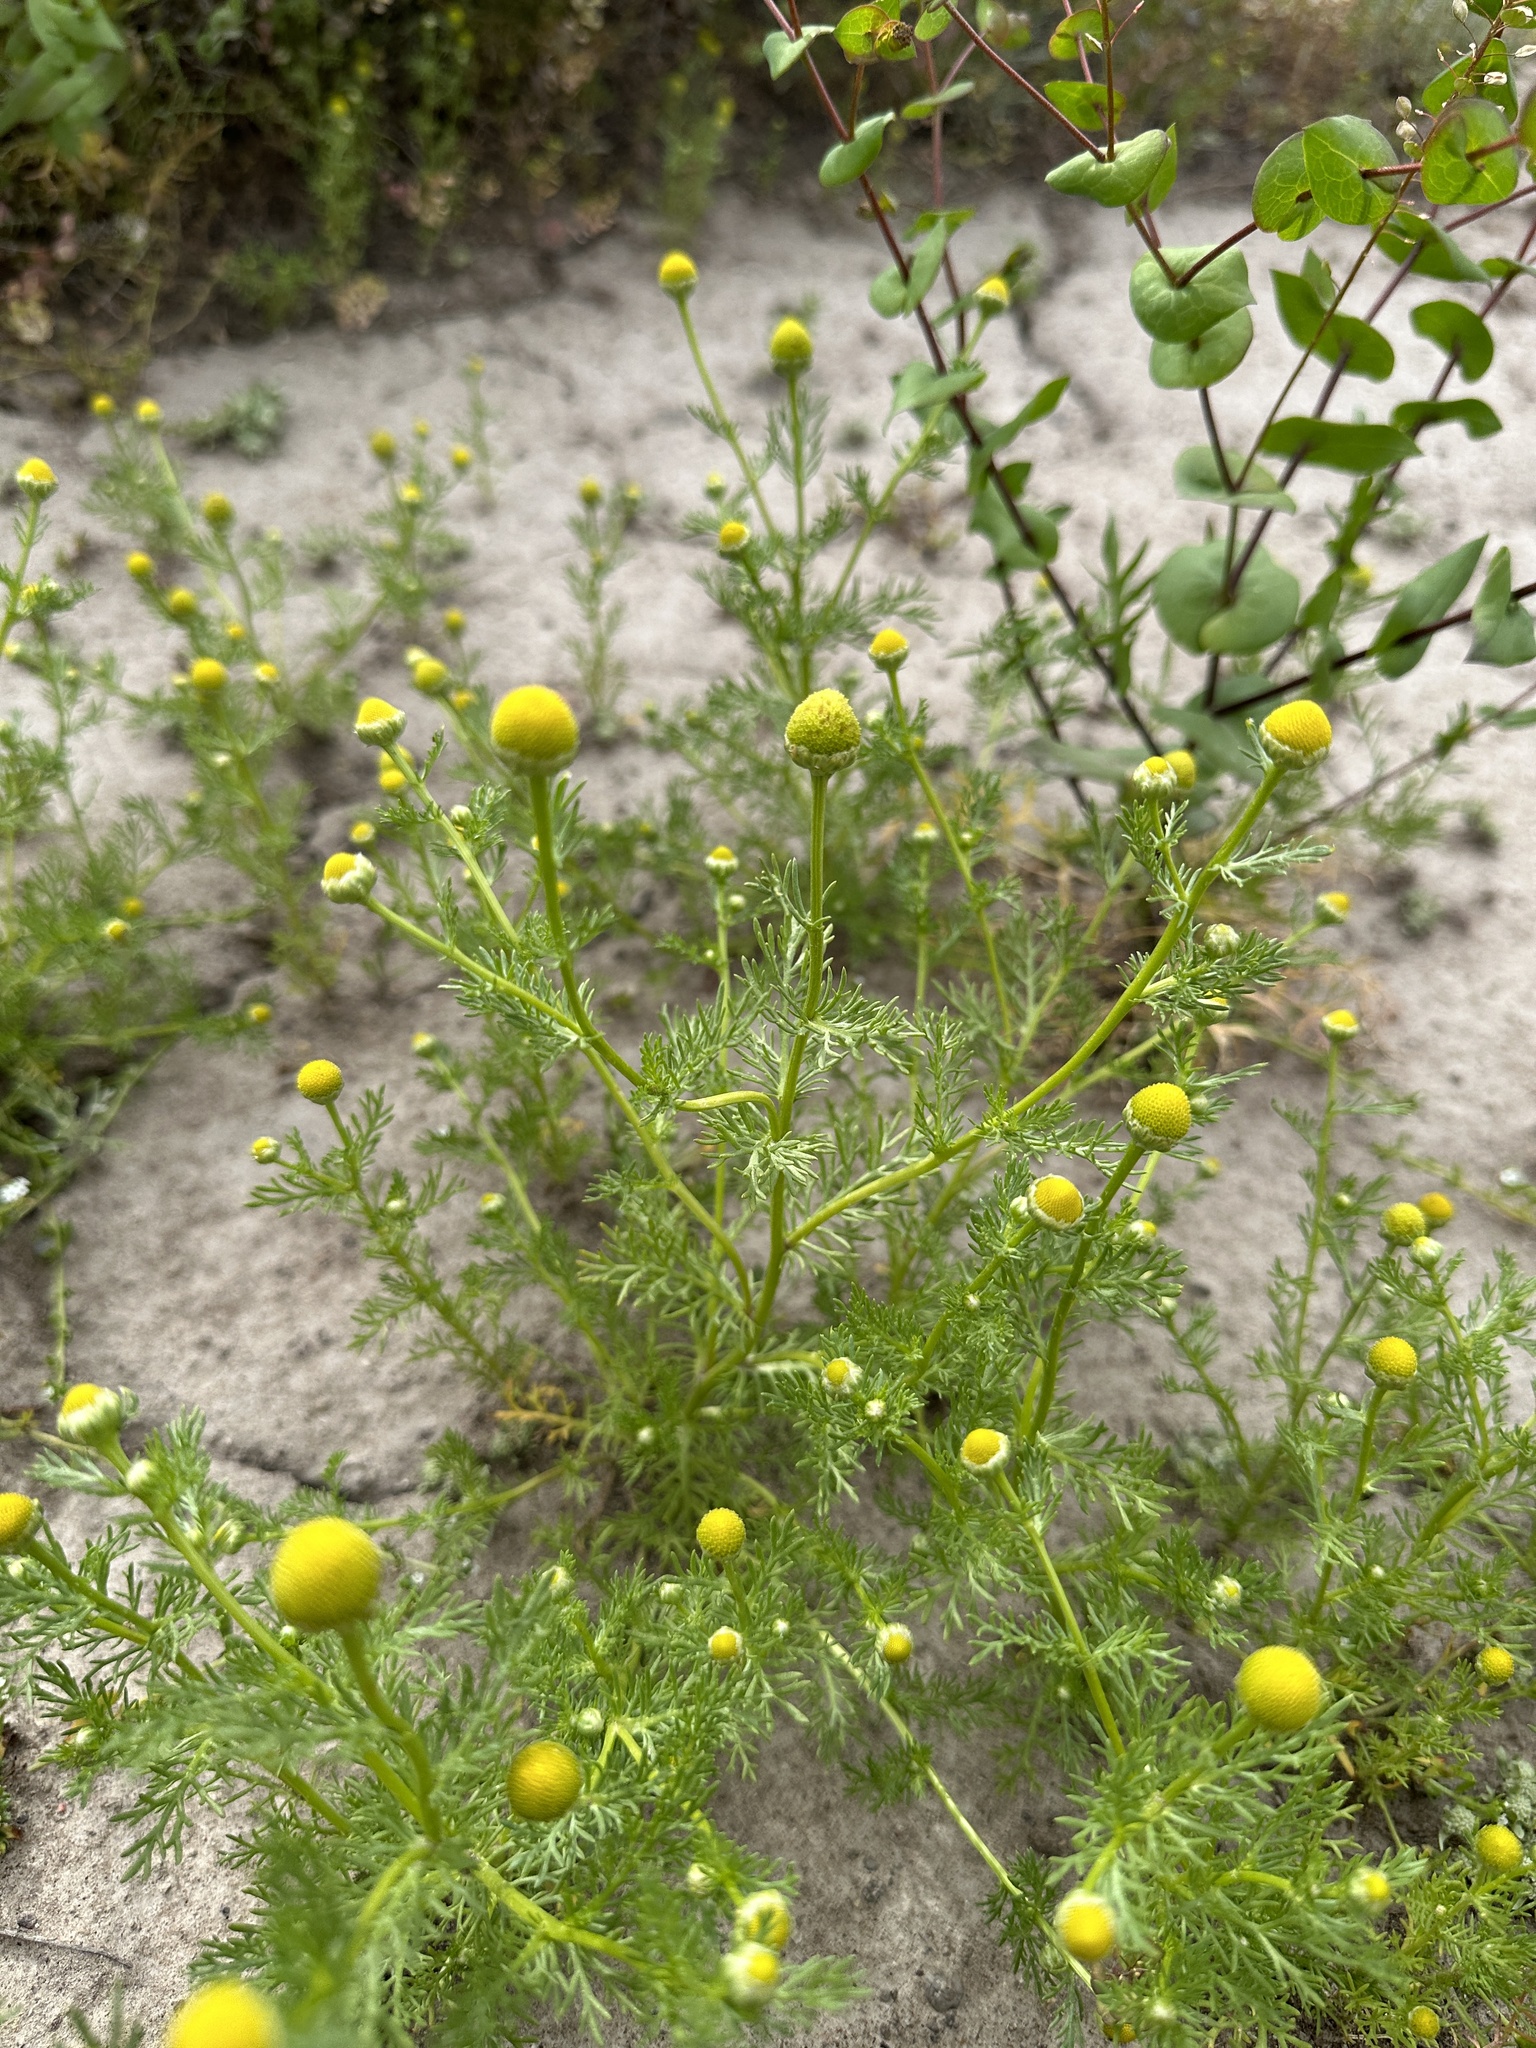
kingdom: Plantae
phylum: Tracheophyta
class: Magnoliopsida
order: Asterales
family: Asteraceae
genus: Matricaria
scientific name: Matricaria discoidea
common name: Disc mayweed
